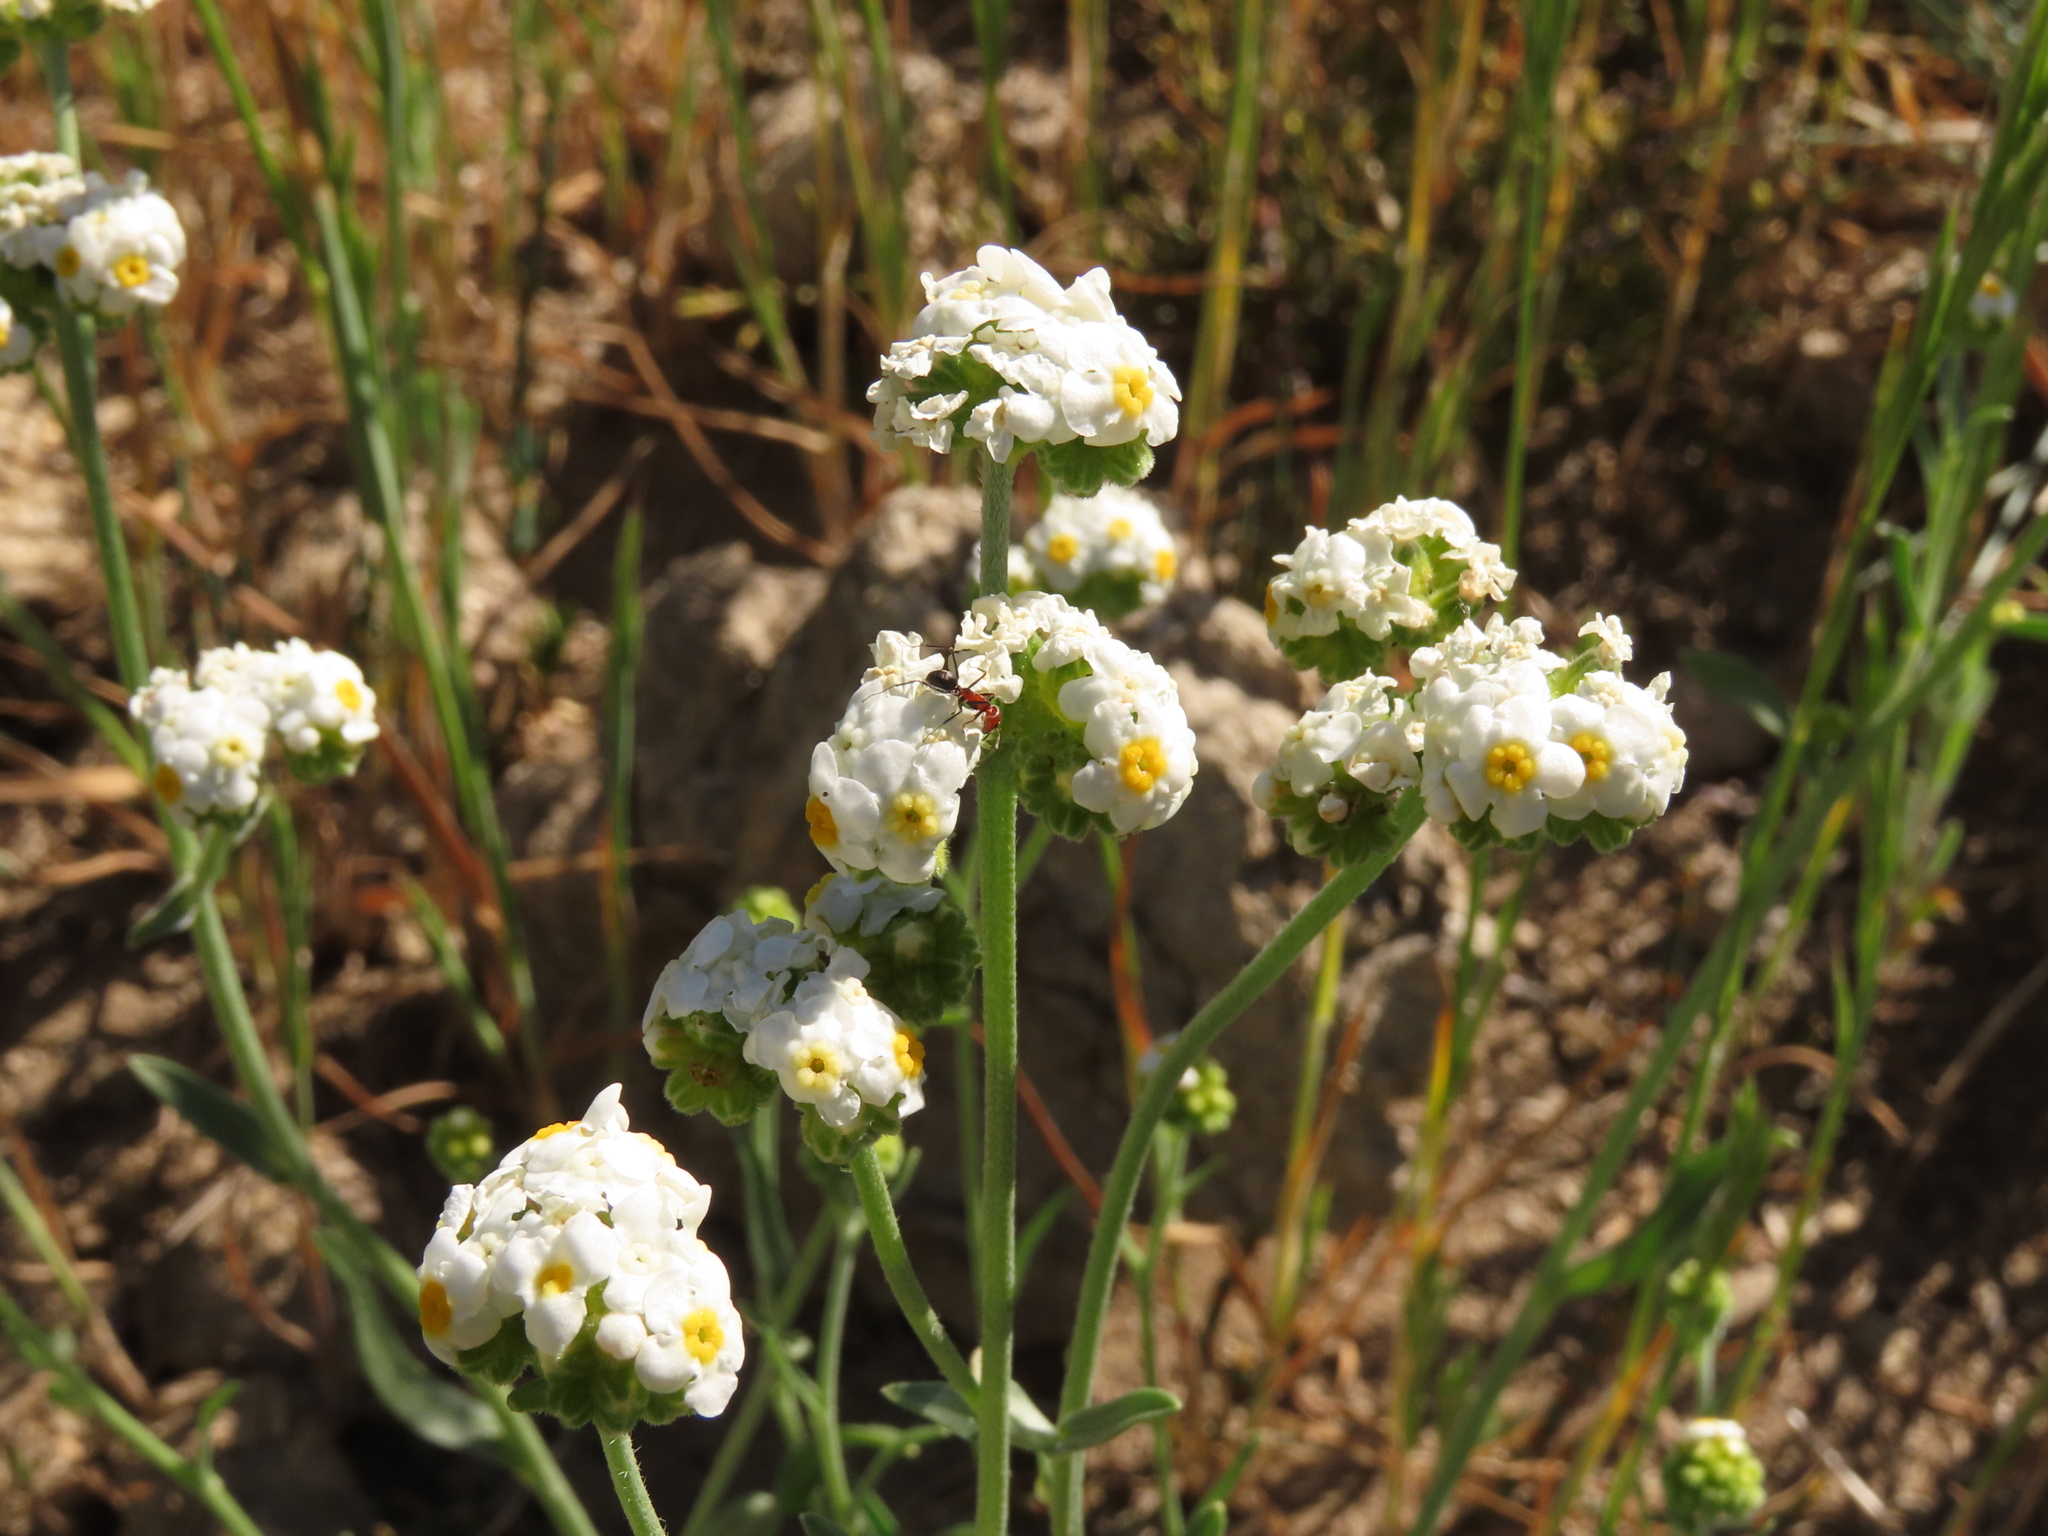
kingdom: Plantae
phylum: Tracheophyta
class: Magnoliopsida
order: Boraginales
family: Boraginaceae
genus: Cryptantha
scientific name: Cryptantha alyssoides
